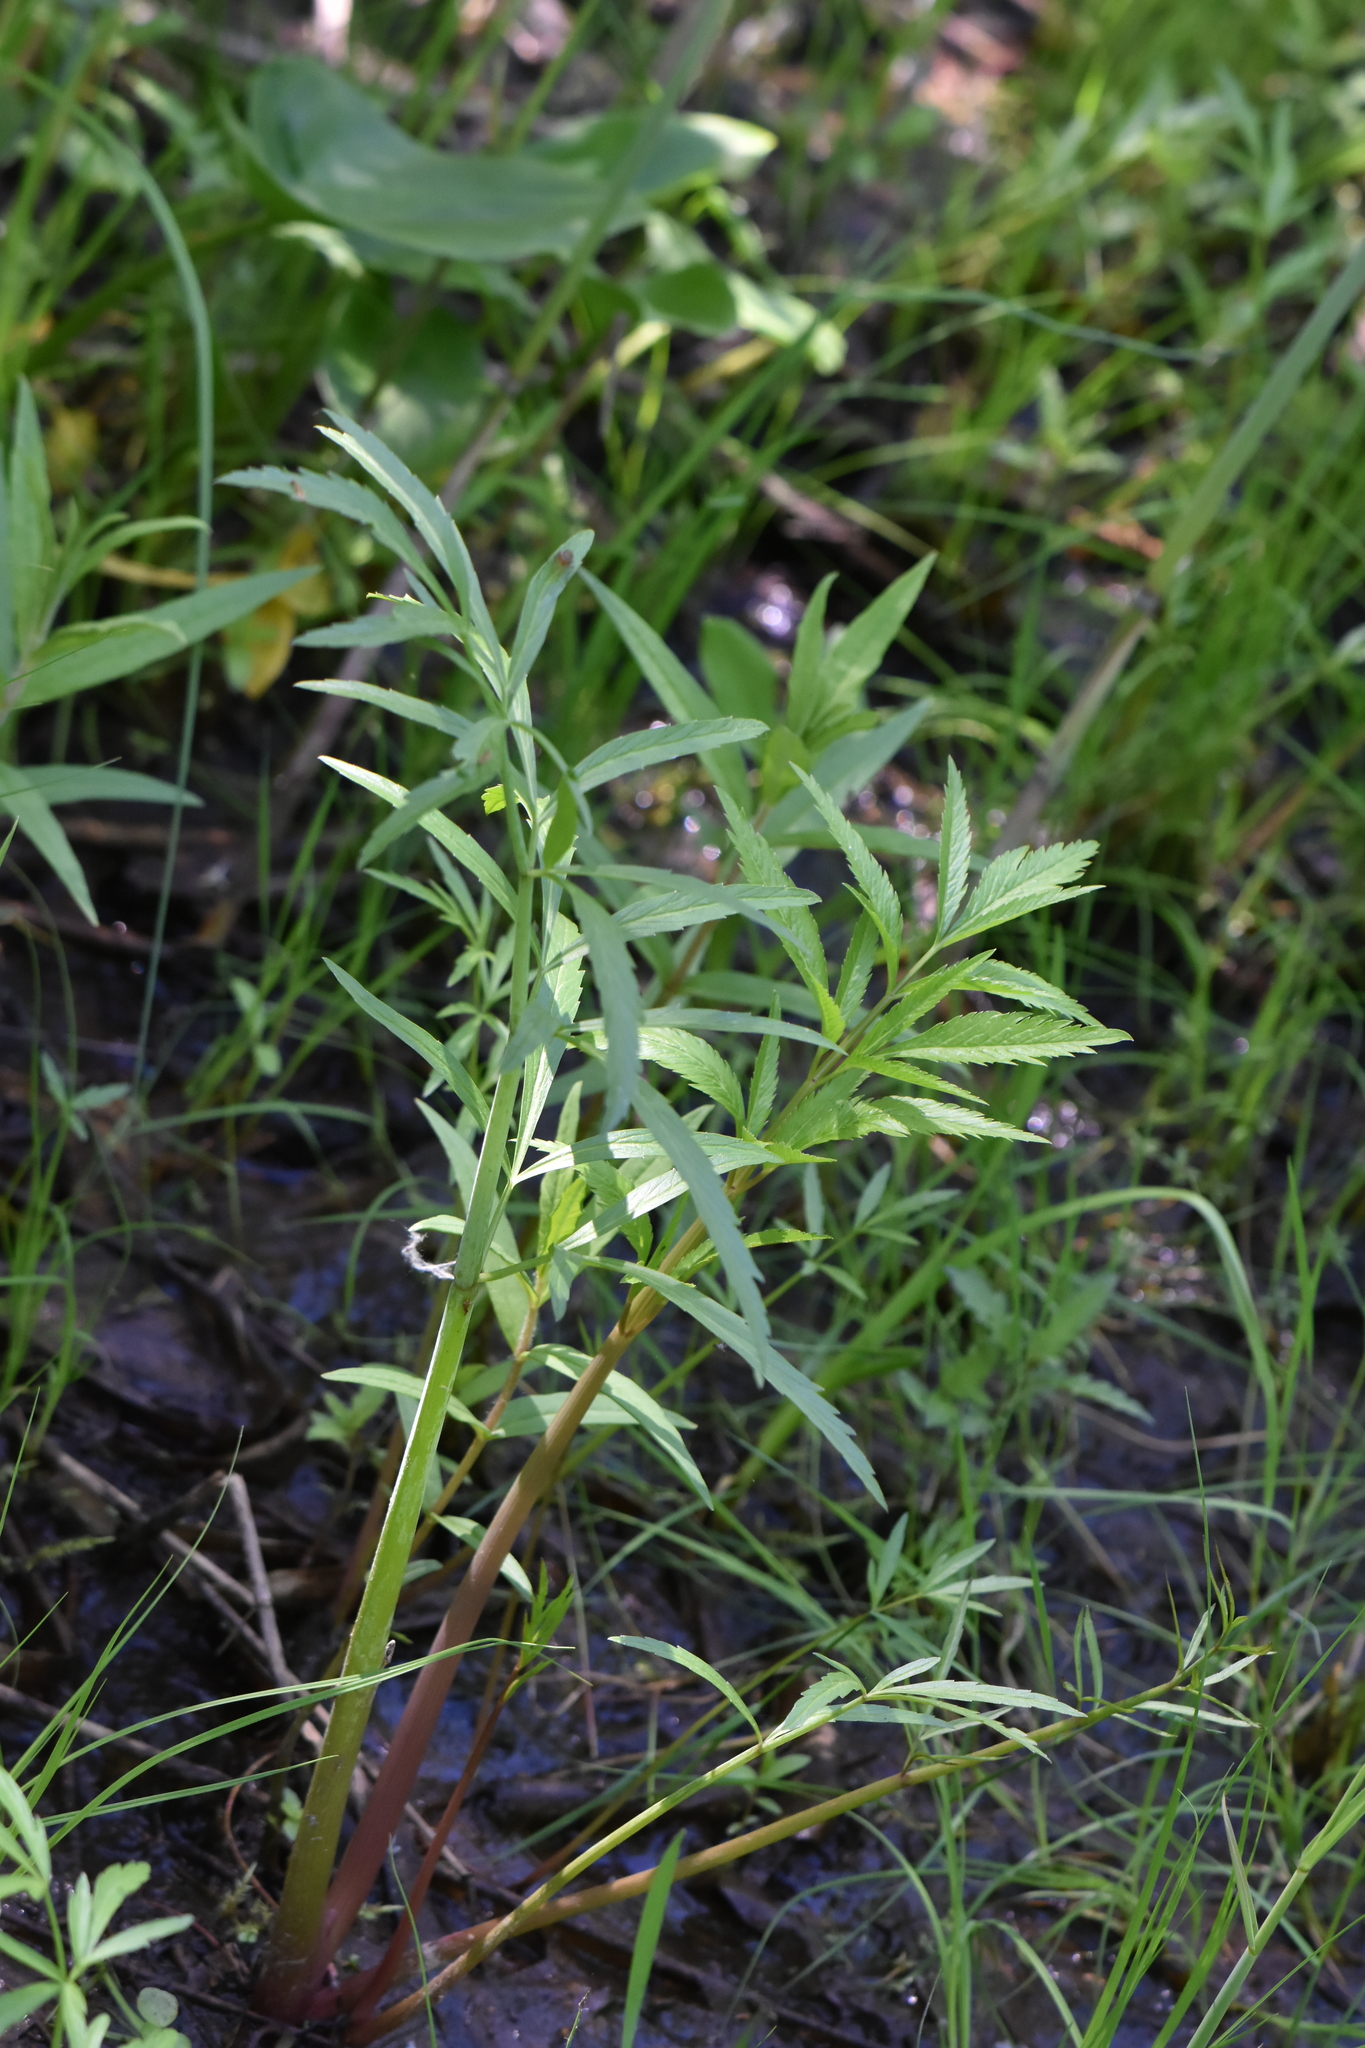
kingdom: Plantae
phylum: Tracheophyta
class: Magnoliopsida
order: Apiales
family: Apiaceae
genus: Cicuta
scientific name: Cicuta virosa
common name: Cowbane
